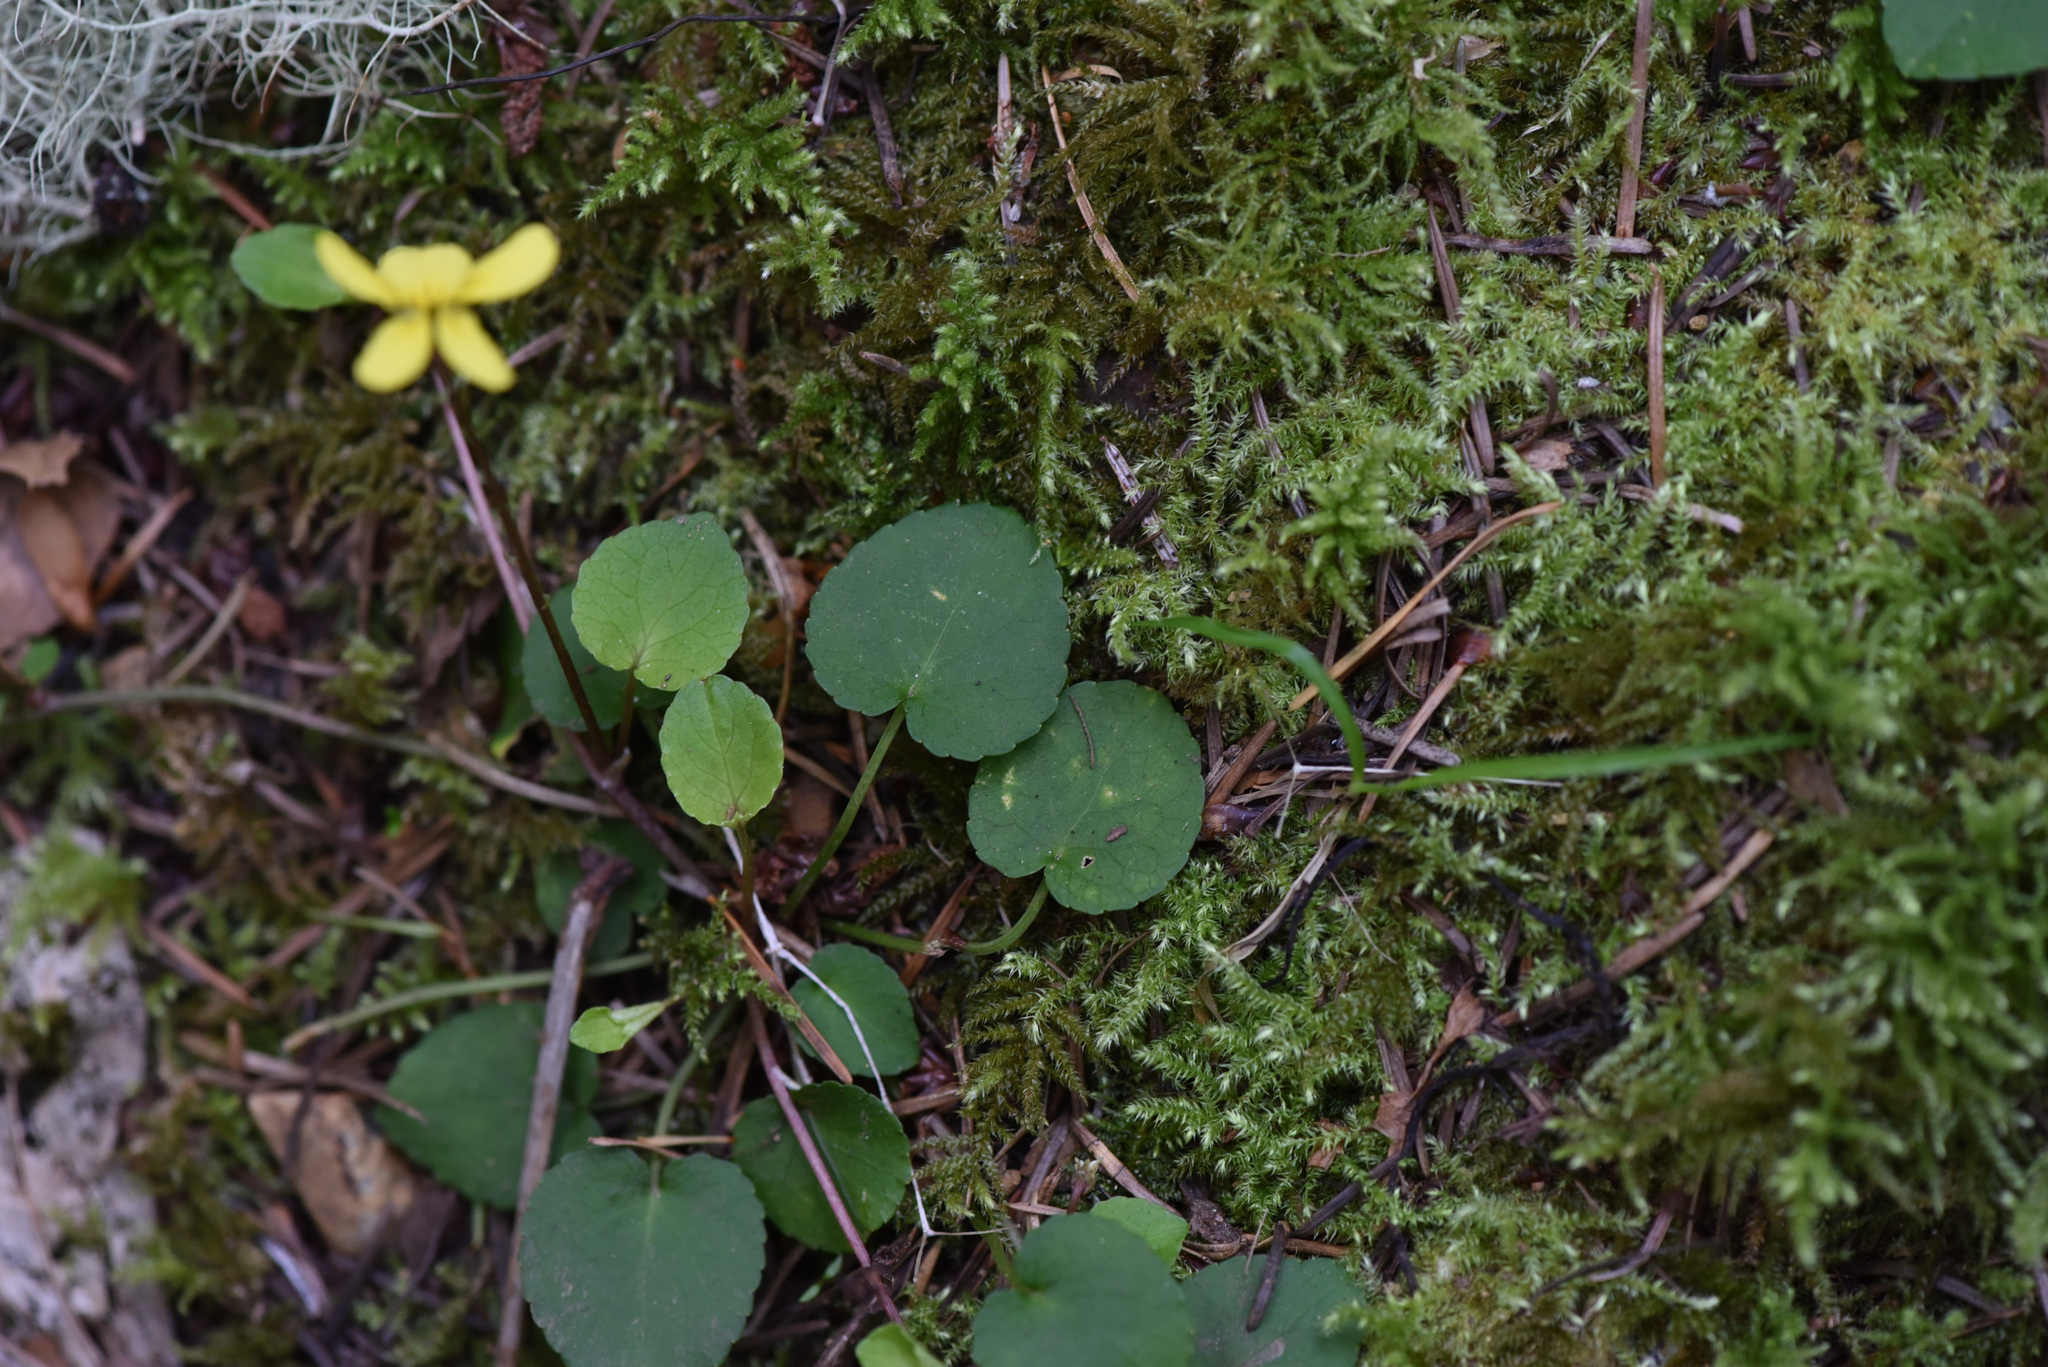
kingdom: Plantae
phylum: Tracheophyta
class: Magnoliopsida
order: Malpighiales
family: Violaceae
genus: Viola
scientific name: Viola sempervirens
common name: Evergreen violet
